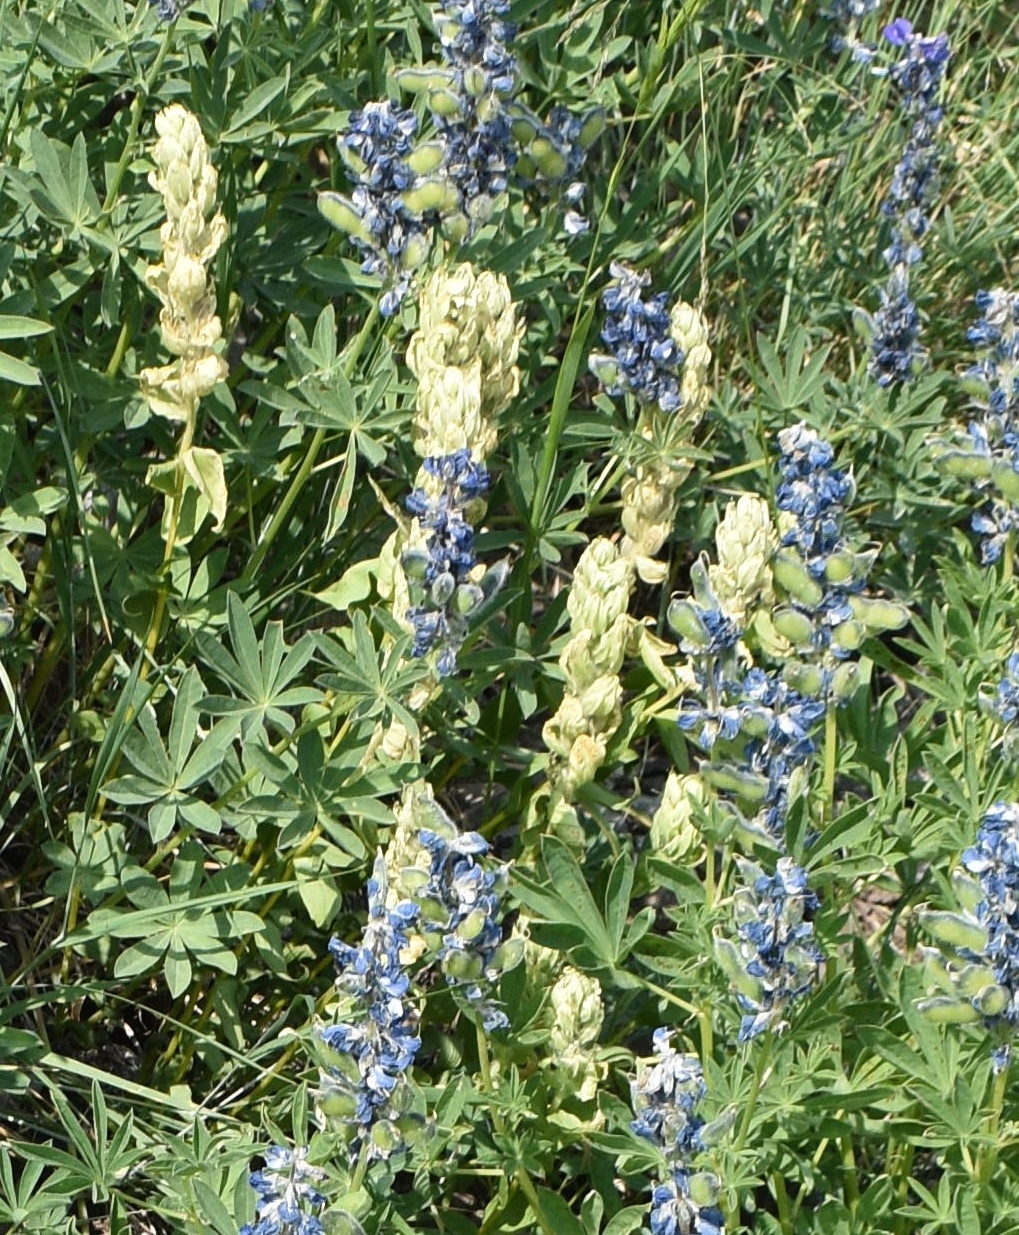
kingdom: Plantae
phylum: Tracheophyta
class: Magnoliopsida
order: Lamiales
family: Orobanchaceae
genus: Castilleja
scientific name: Castilleja occidentalis
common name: Western paintbrush
